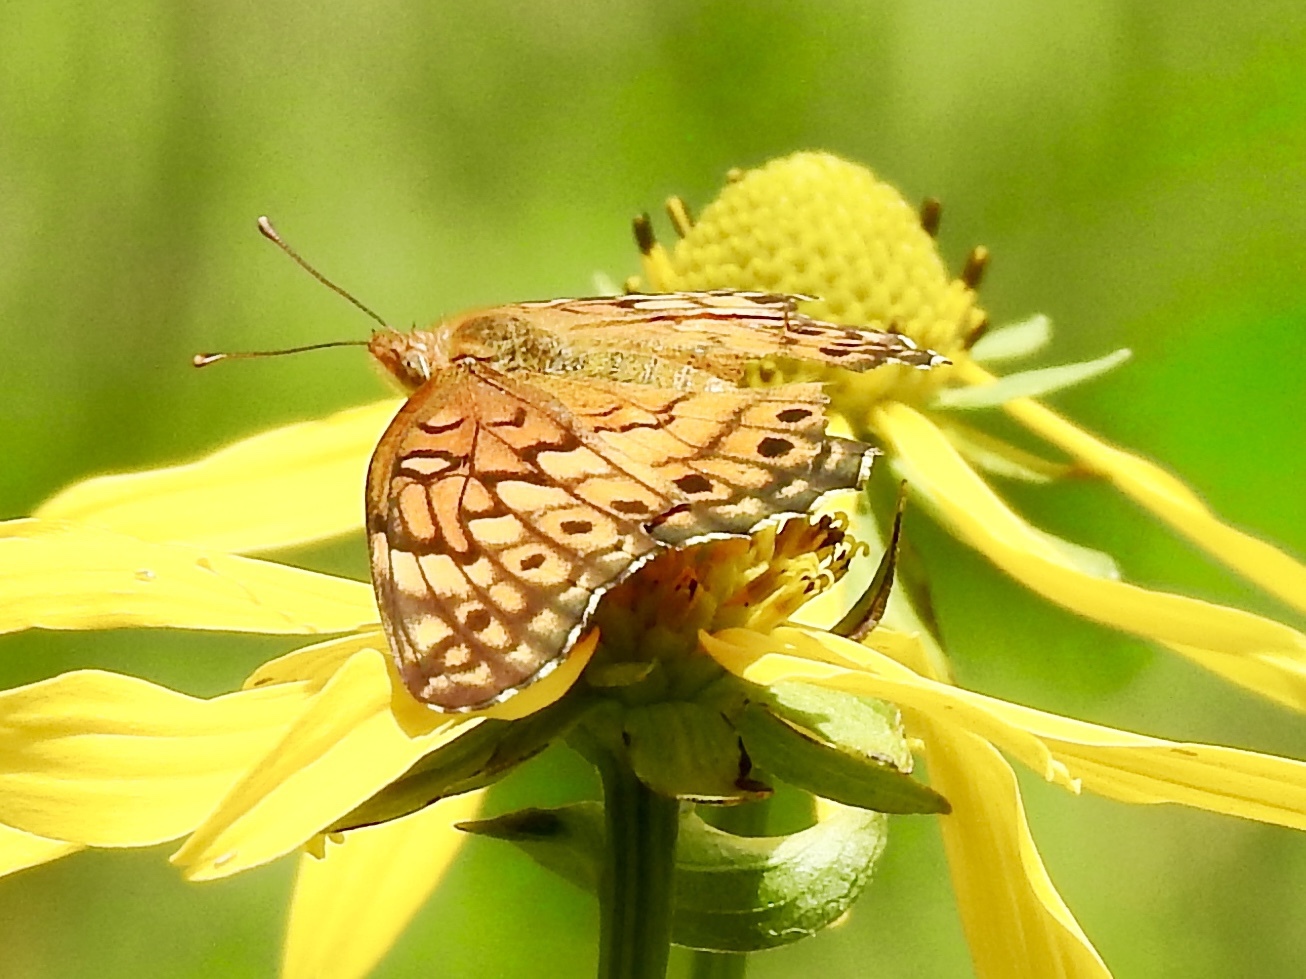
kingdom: Animalia
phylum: Arthropoda
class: Insecta
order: Lepidoptera
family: Nymphalidae
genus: Euptoieta
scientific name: Euptoieta claudia
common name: Variegated fritillary
